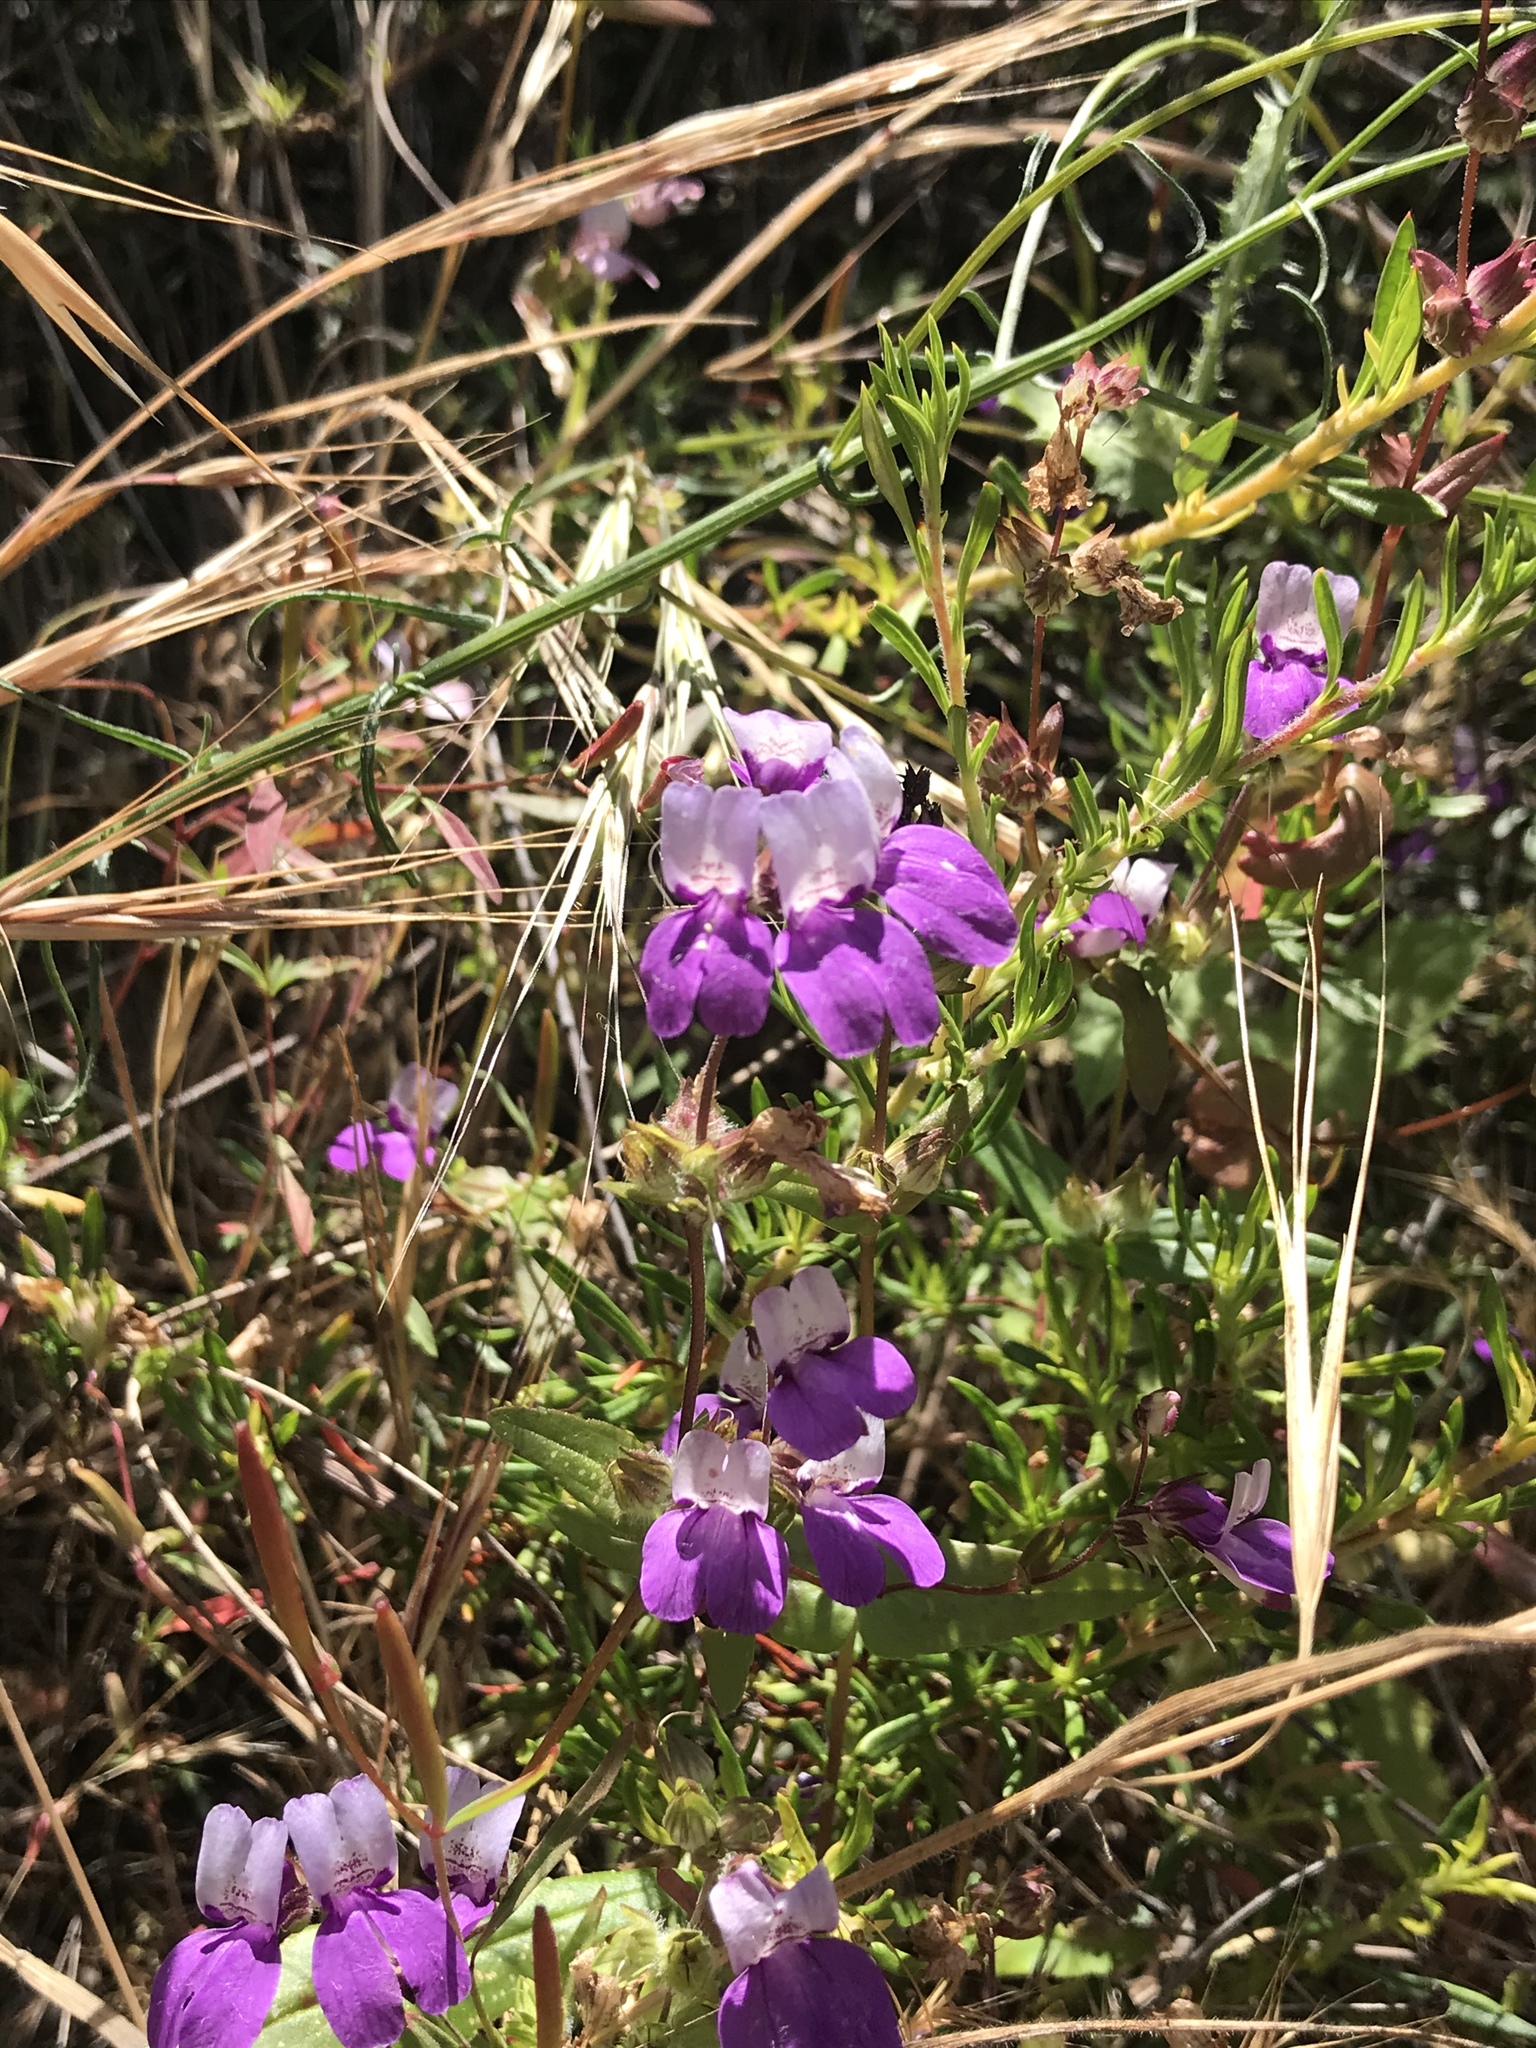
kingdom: Plantae
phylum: Tracheophyta
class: Magnoliopsida
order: Lamiales
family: Plantaginaceae
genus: Collinsia
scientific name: Collinsia heterophylla
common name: Chinese-houses
